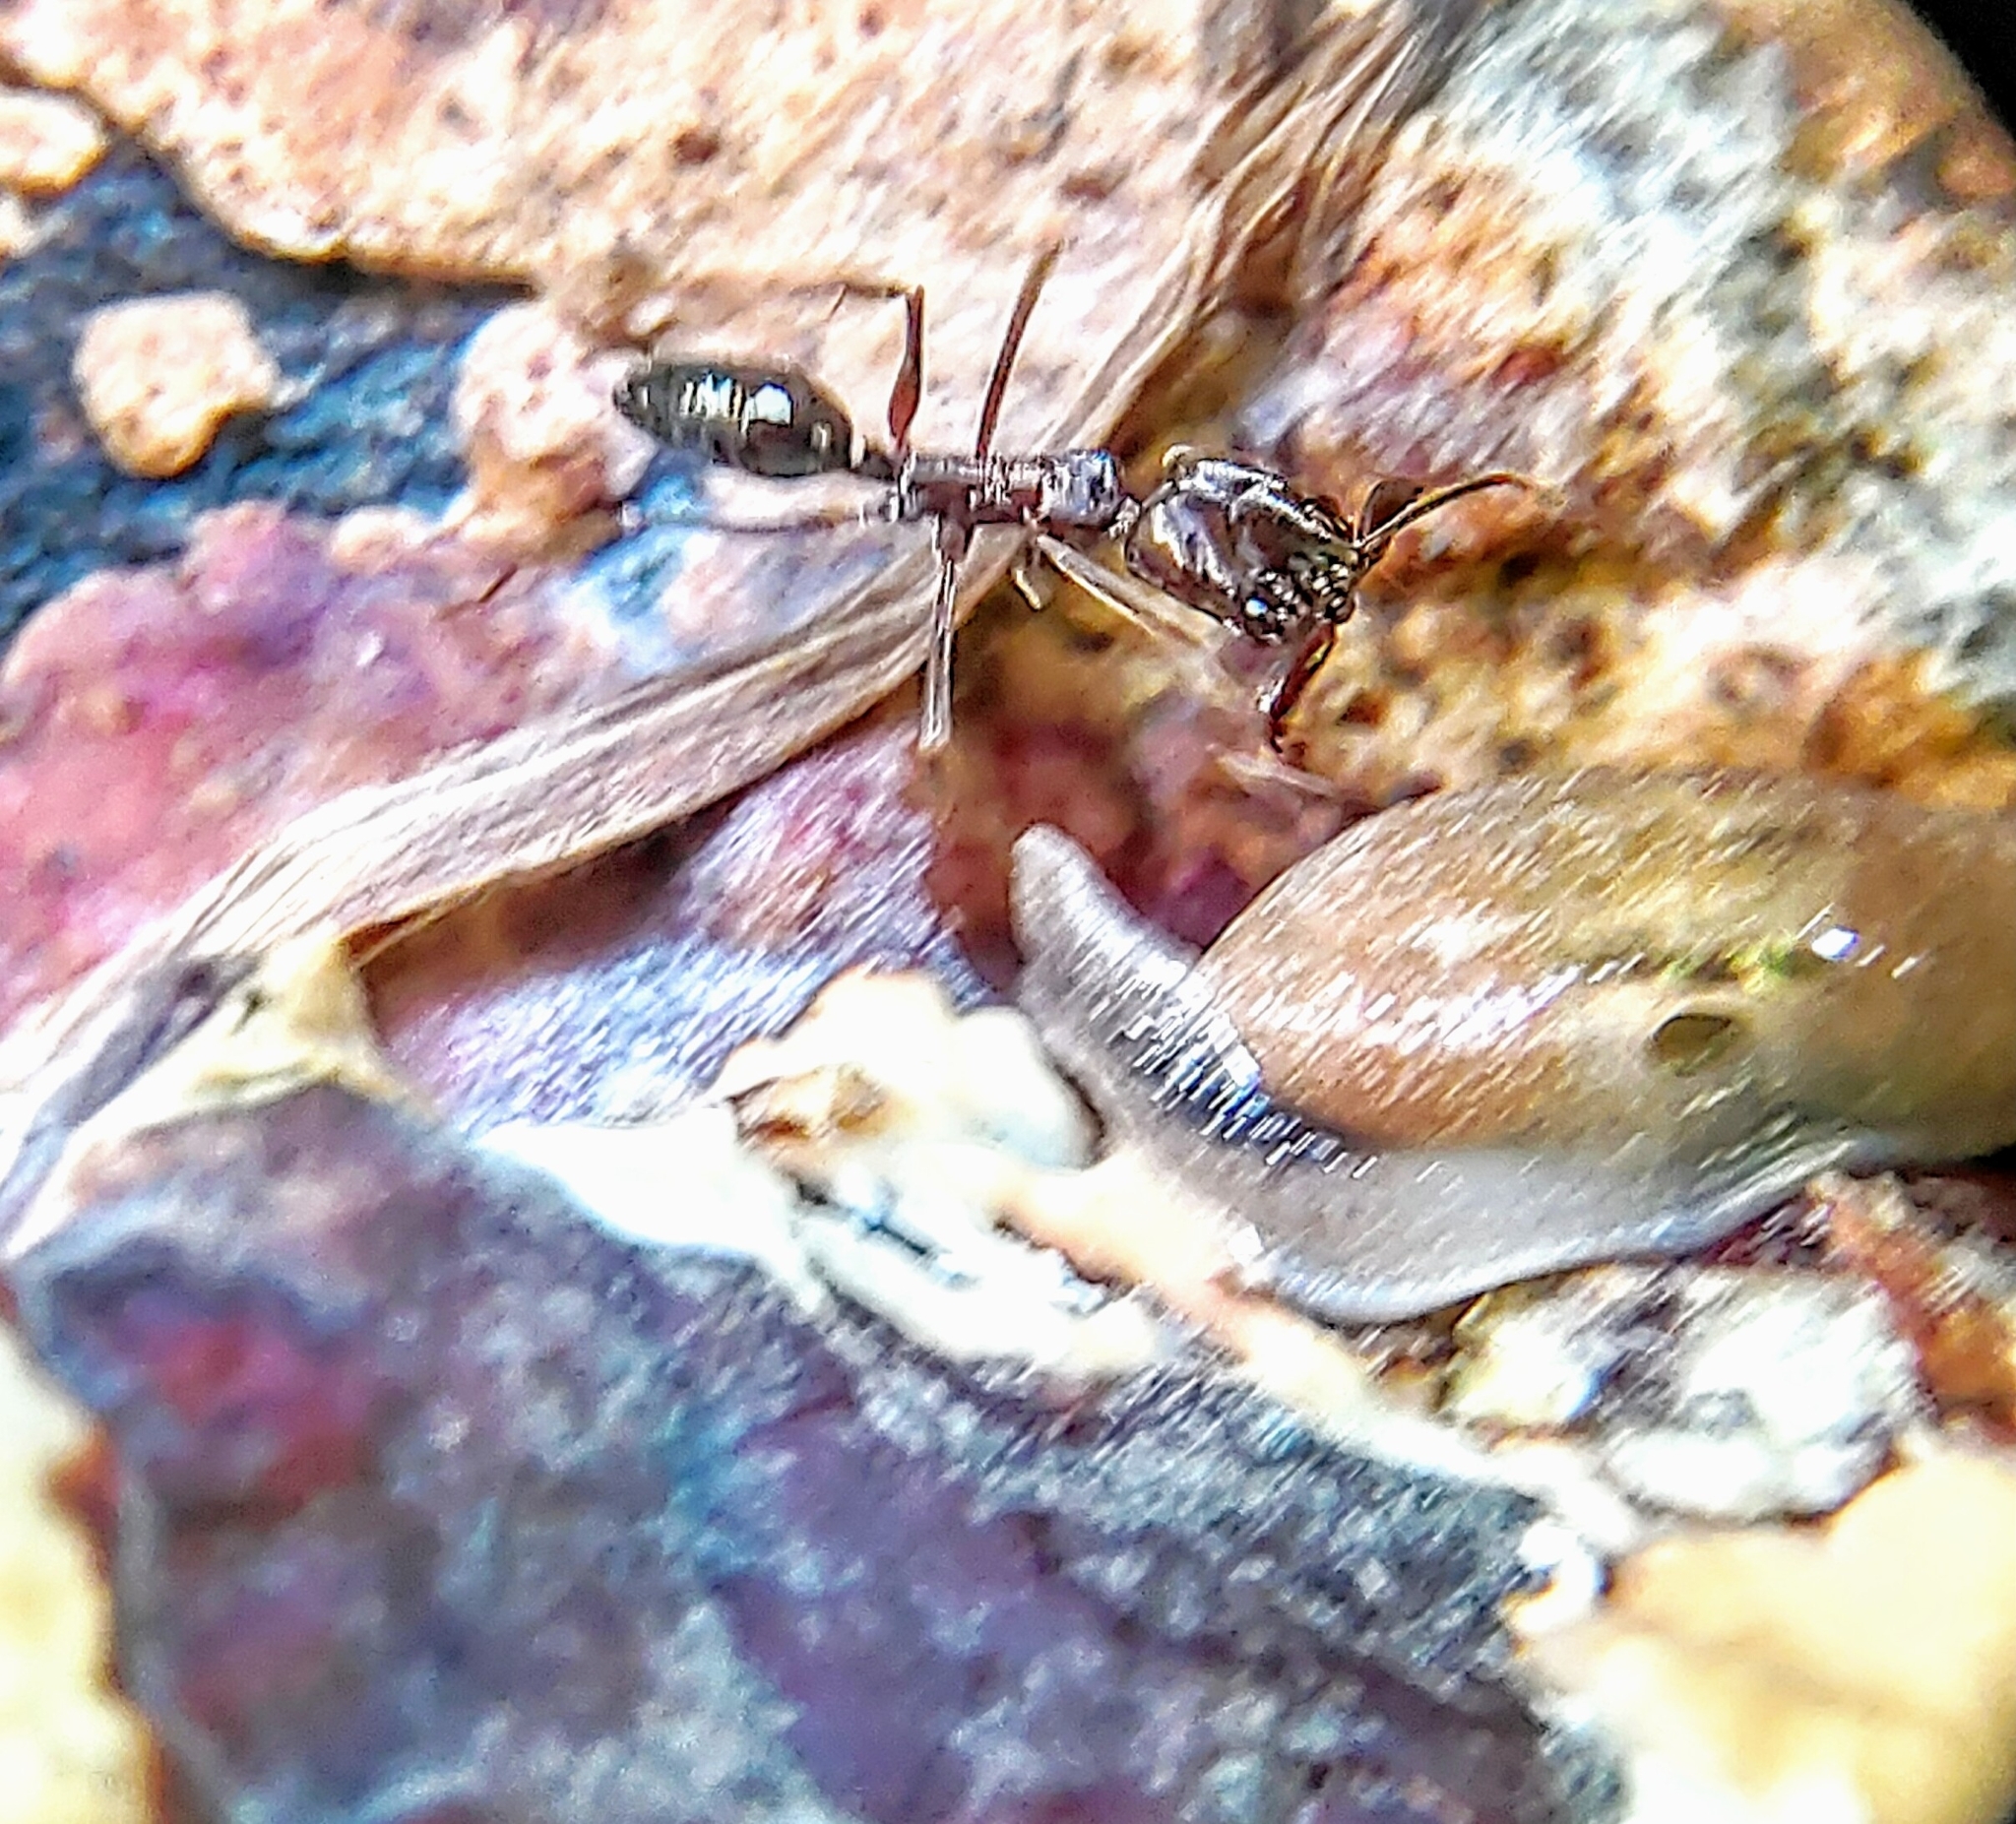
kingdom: Animalia
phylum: Arthropoda
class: Insecta
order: Hymenoptera
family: Formicidae
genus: Odontomachus
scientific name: Odontomachus simillimus
